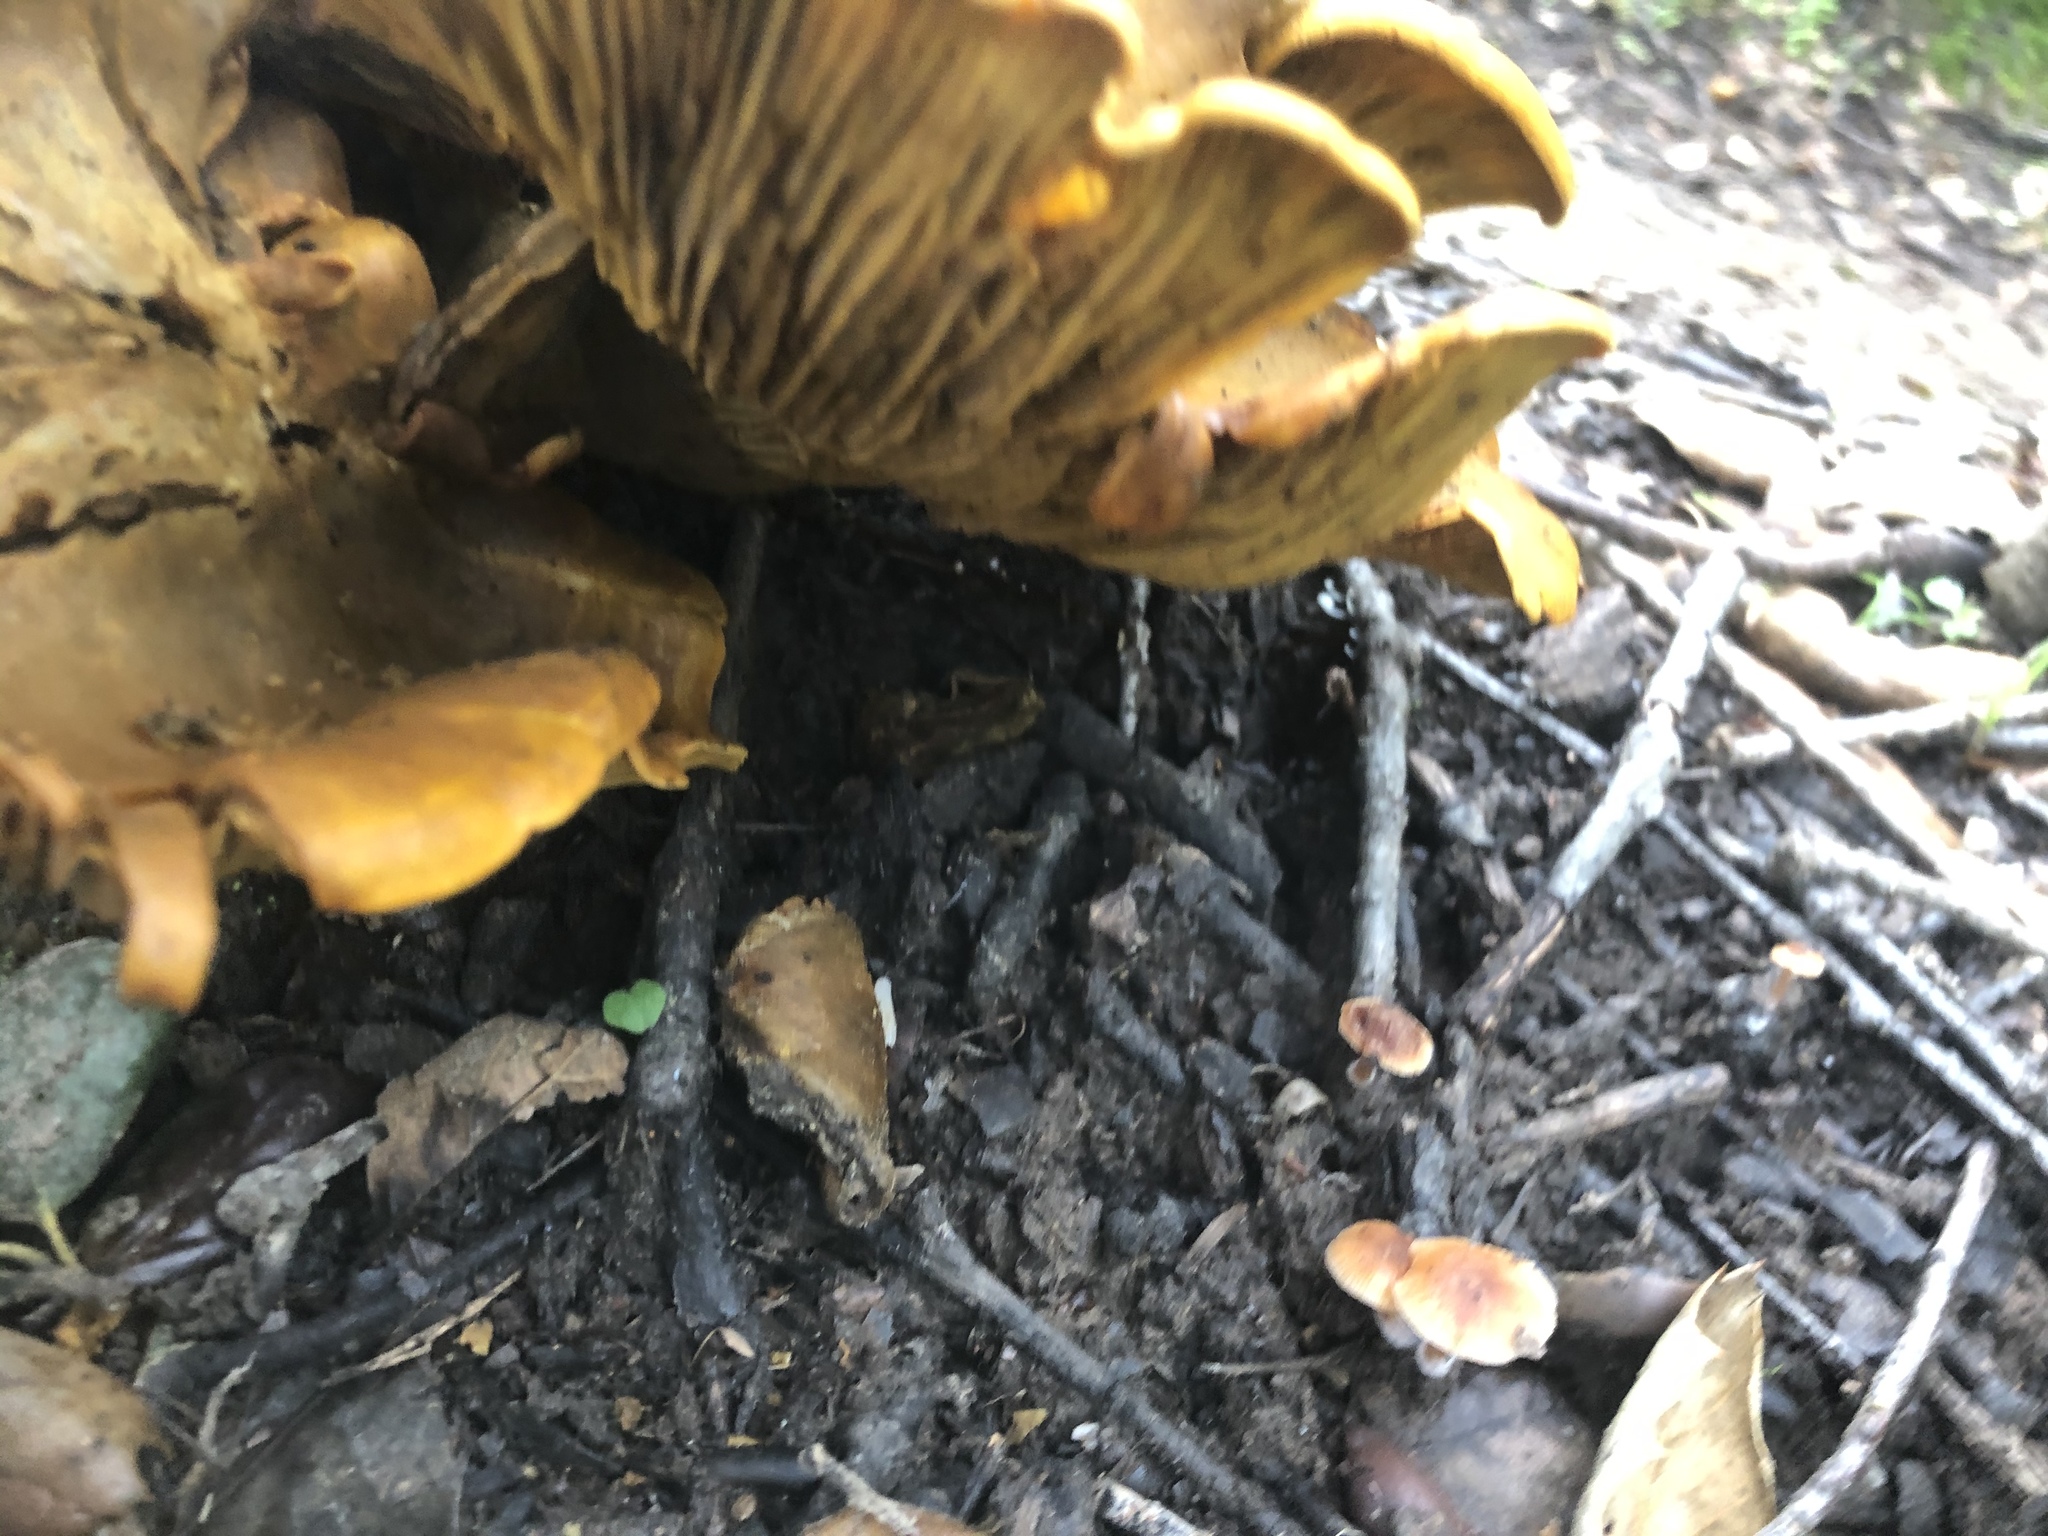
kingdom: Fungi
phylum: Basidiomycota
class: Agaricomycetes
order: Agaricales
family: Omphalotaceae
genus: Omphalotus
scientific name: Omphalotus olivascens
